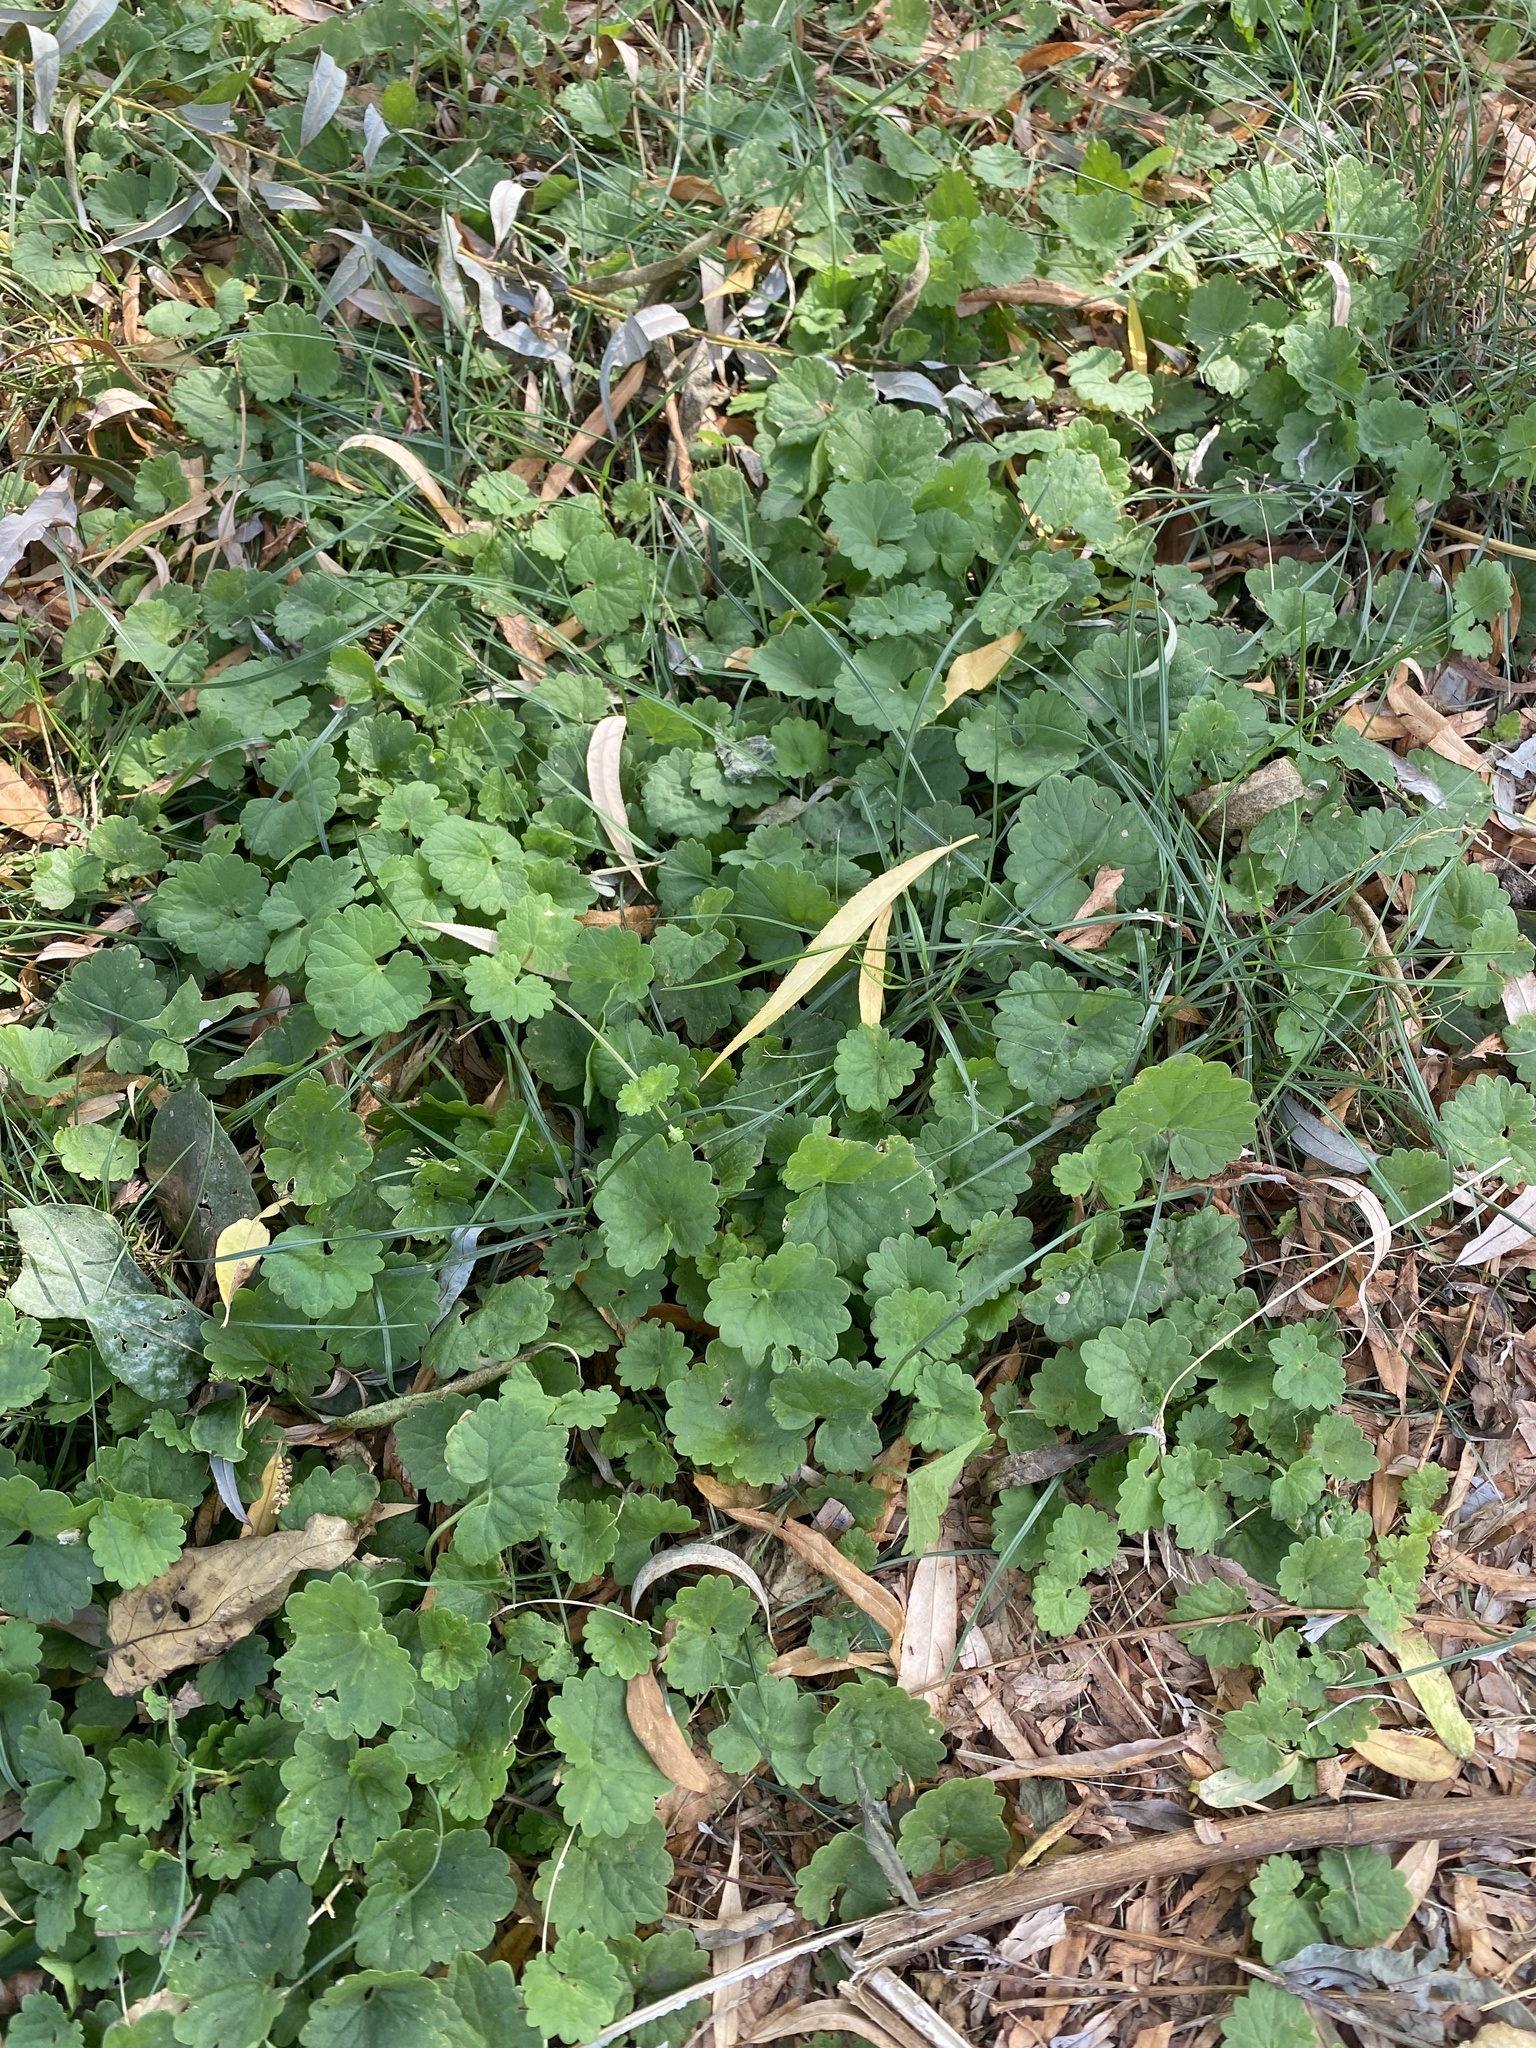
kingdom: Plantae
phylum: Tracheophyta
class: Magnoliopsida
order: Lamiales
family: Lamiaceae
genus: Glechoma
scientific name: Glechoma hederacea
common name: Ground ivy
